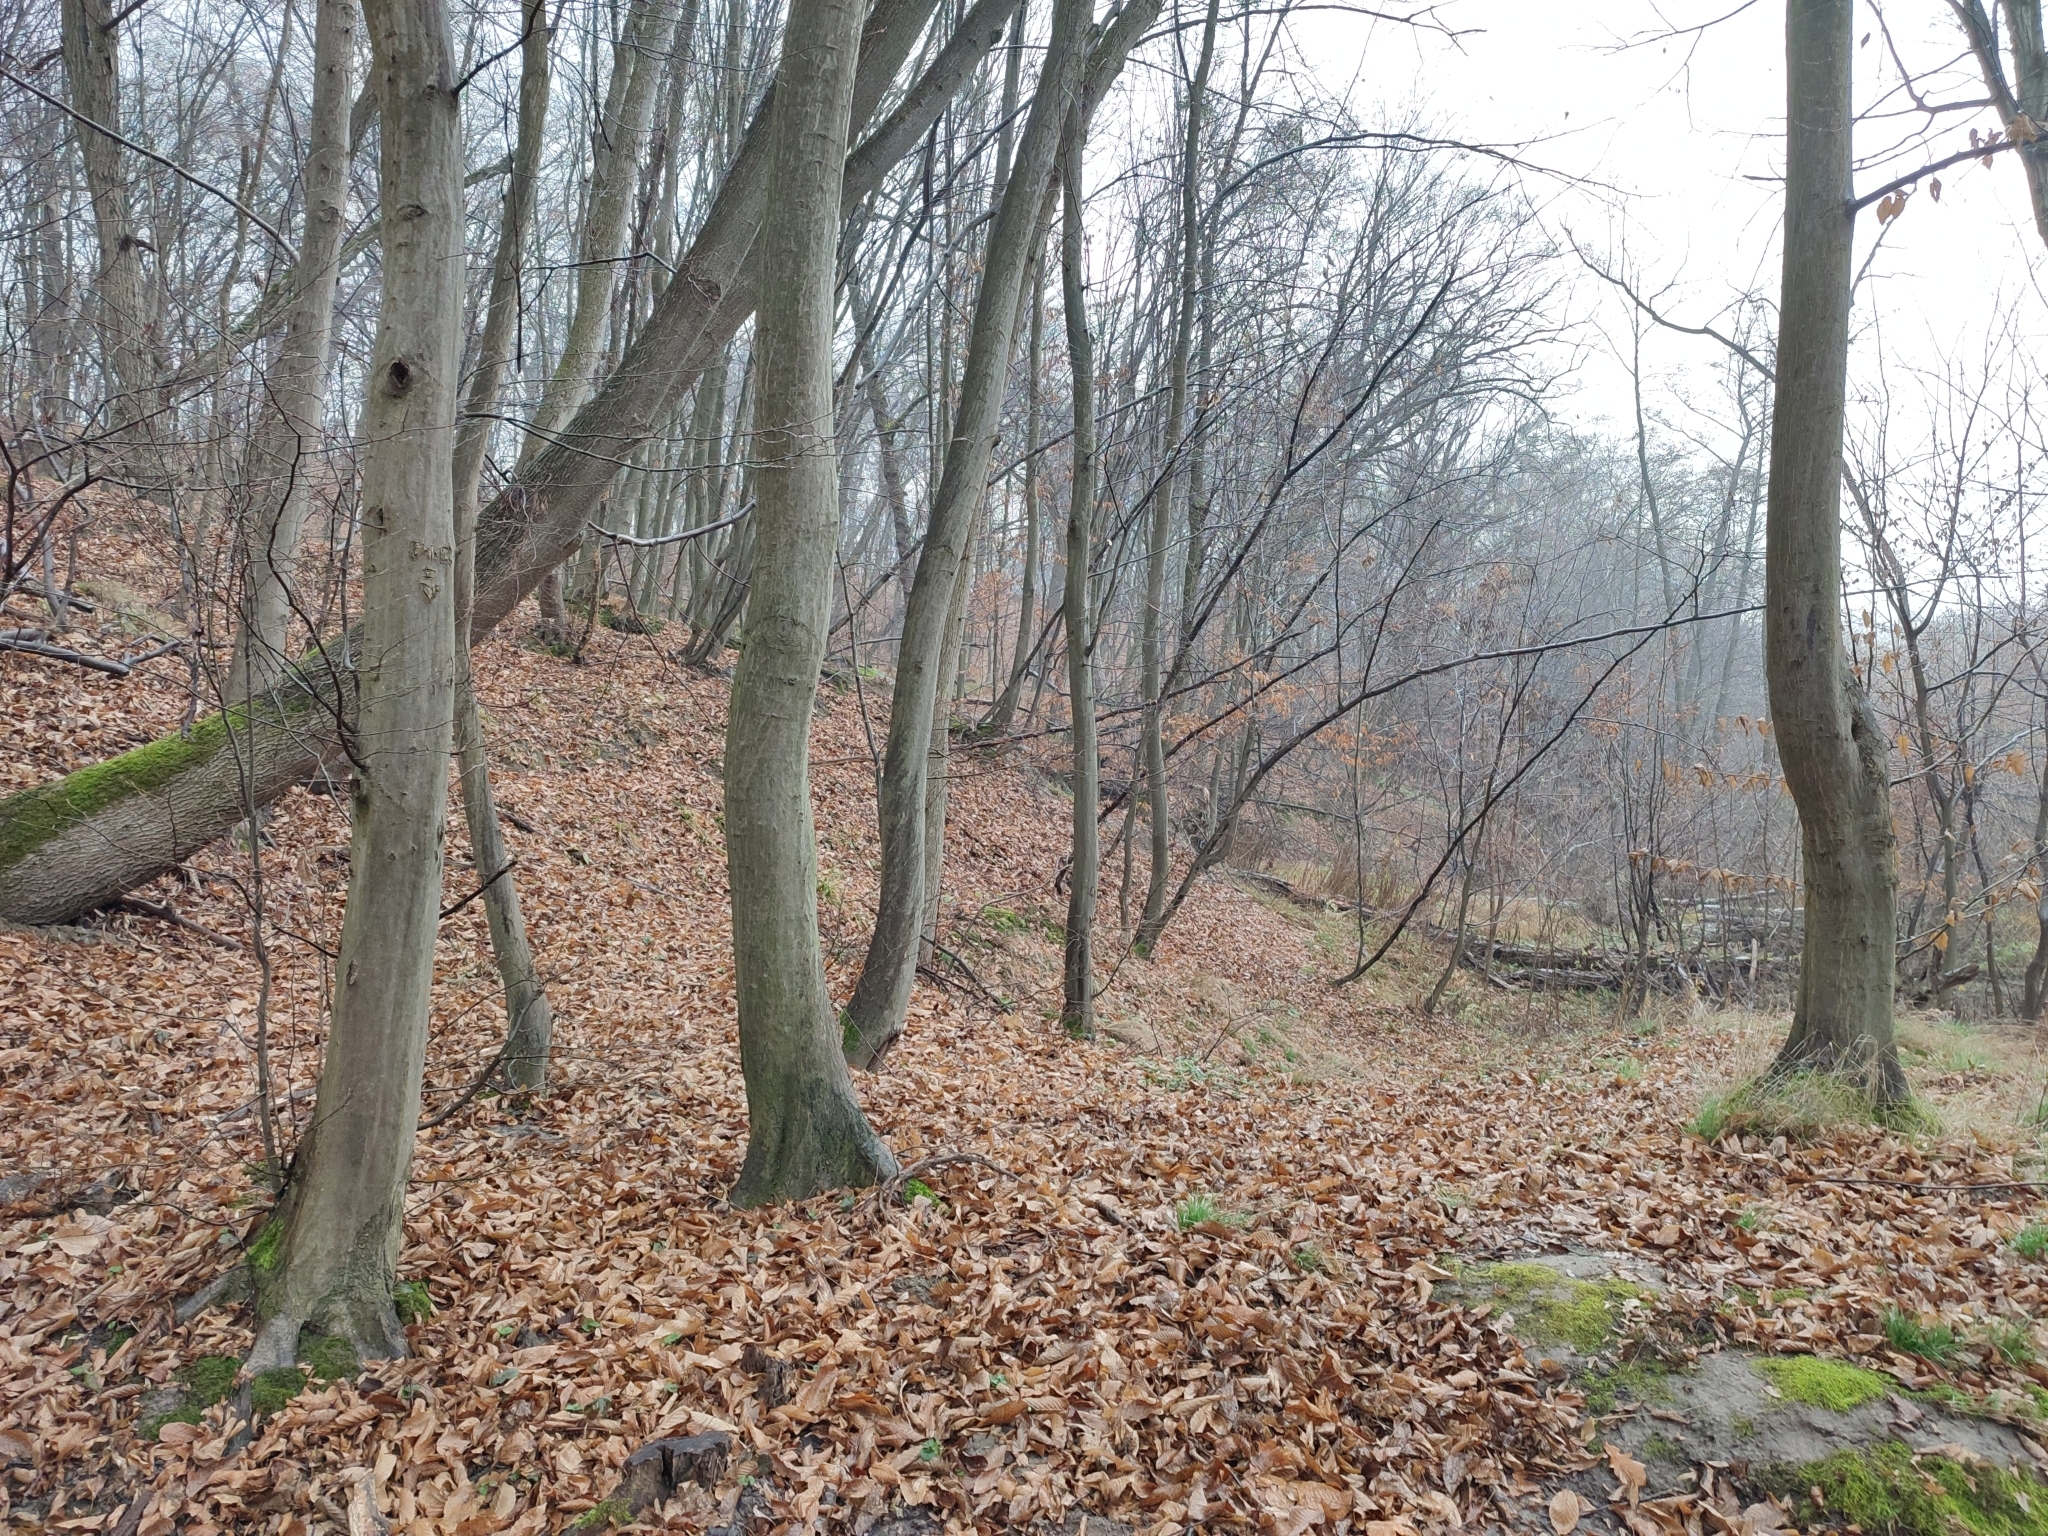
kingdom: Plantae
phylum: Tracheophyta
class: Magnoliopsida
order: Fagales
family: Betulaceae
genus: Carpinus
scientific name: Carpinus betulus
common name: Hornbeam
